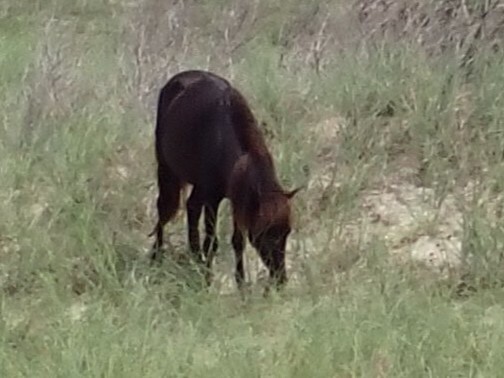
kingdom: Animalia
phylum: Chordata
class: Mammalia
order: Perissodactyla
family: Equidae
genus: Equus
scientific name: Equus caballus
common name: Horse
